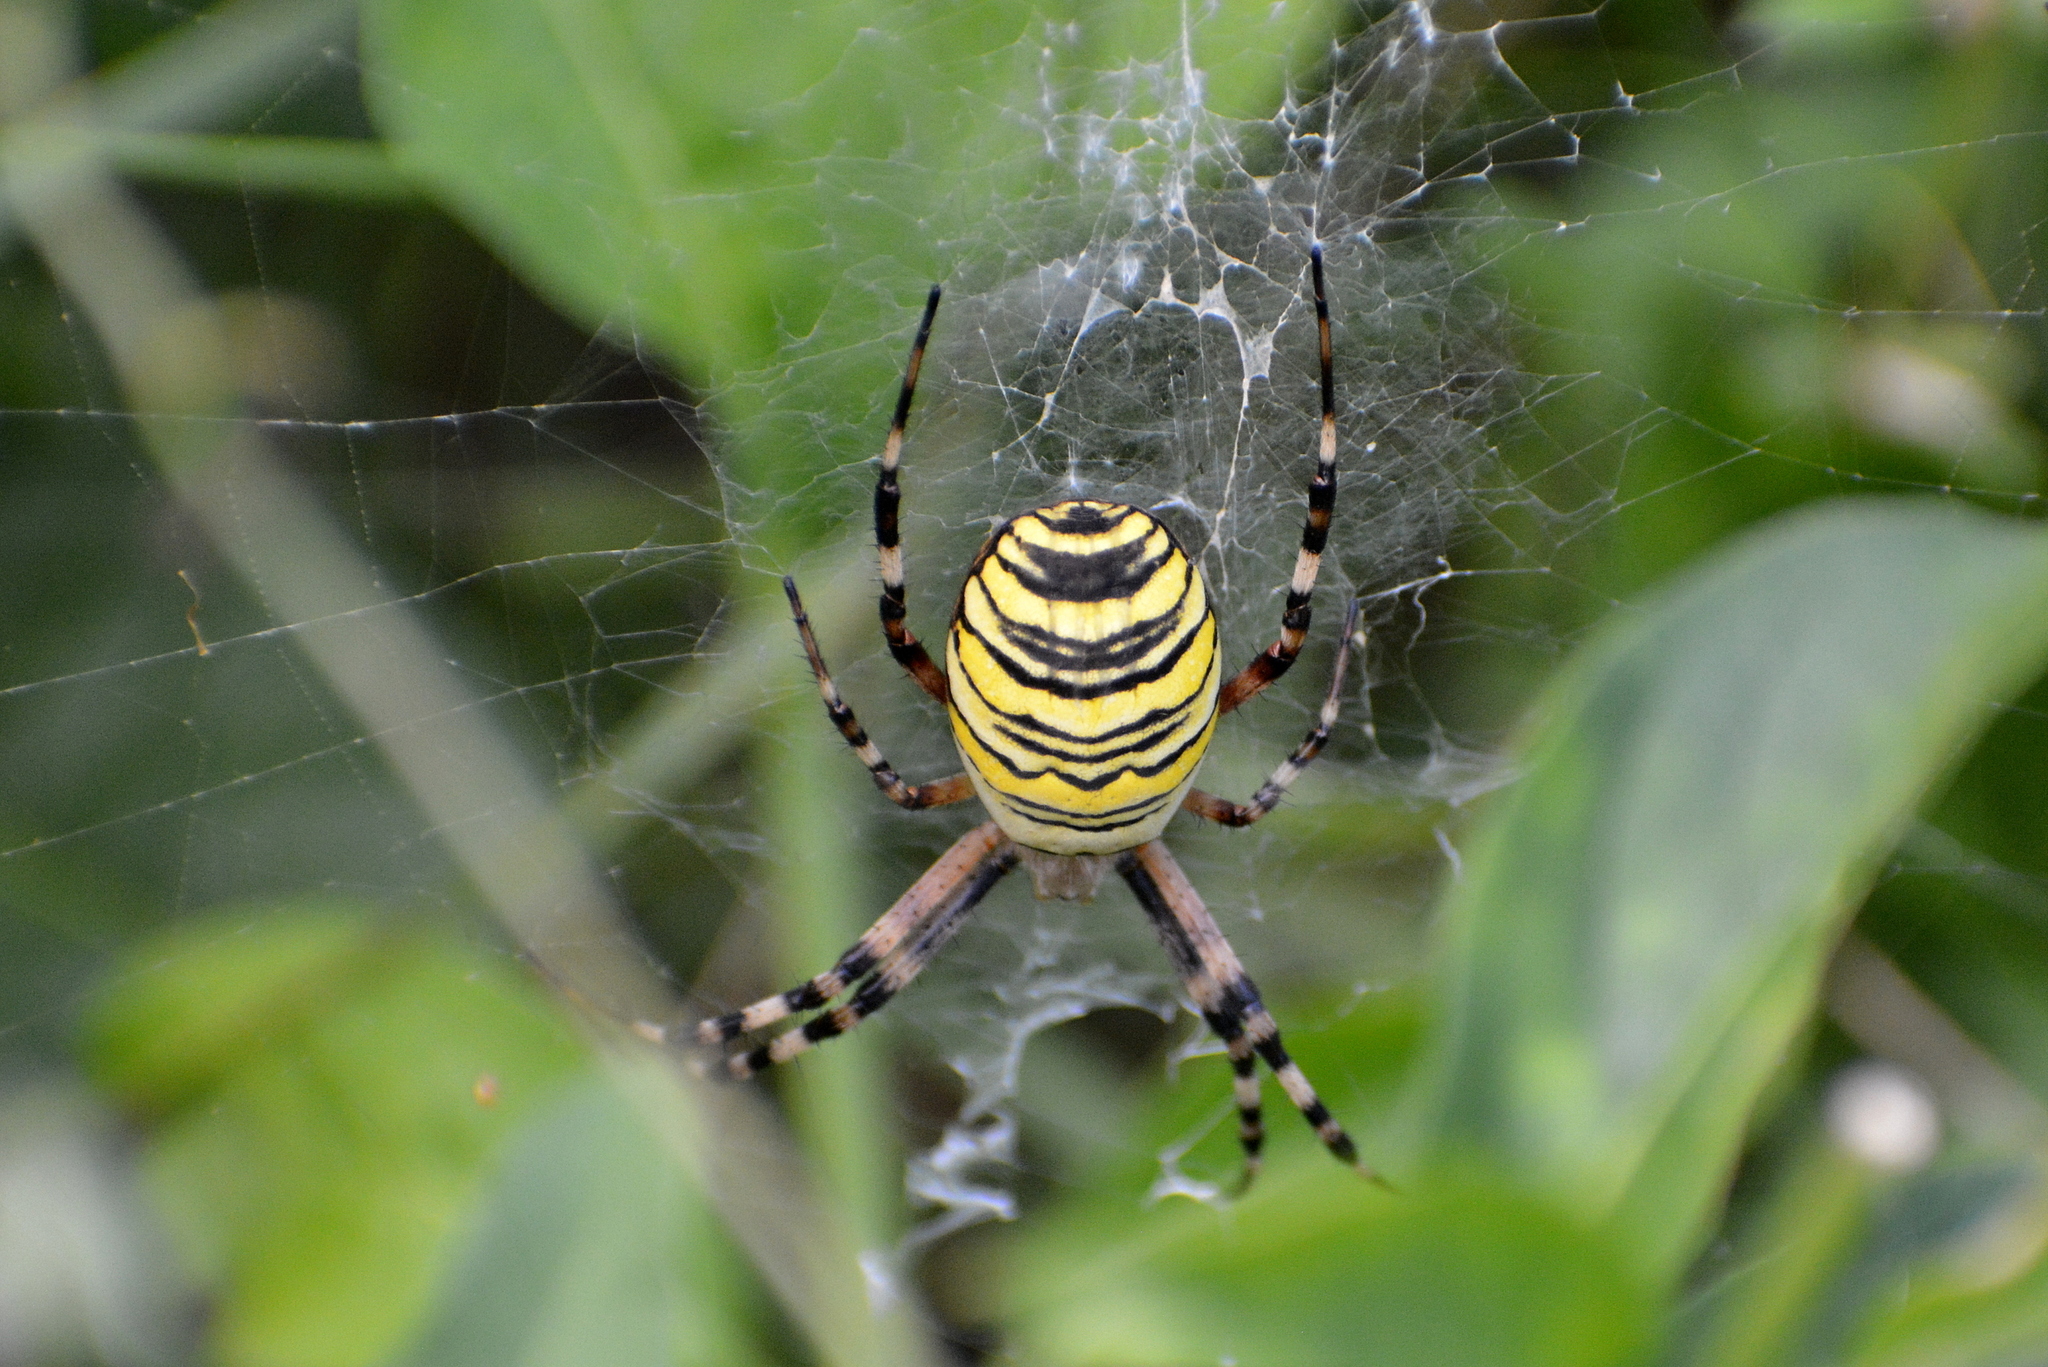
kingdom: Animalia
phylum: Arthropoda
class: Arachnida
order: Araneae
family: Araneidae
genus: Argiope
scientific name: Argiope bruennichi
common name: Wasp spider
